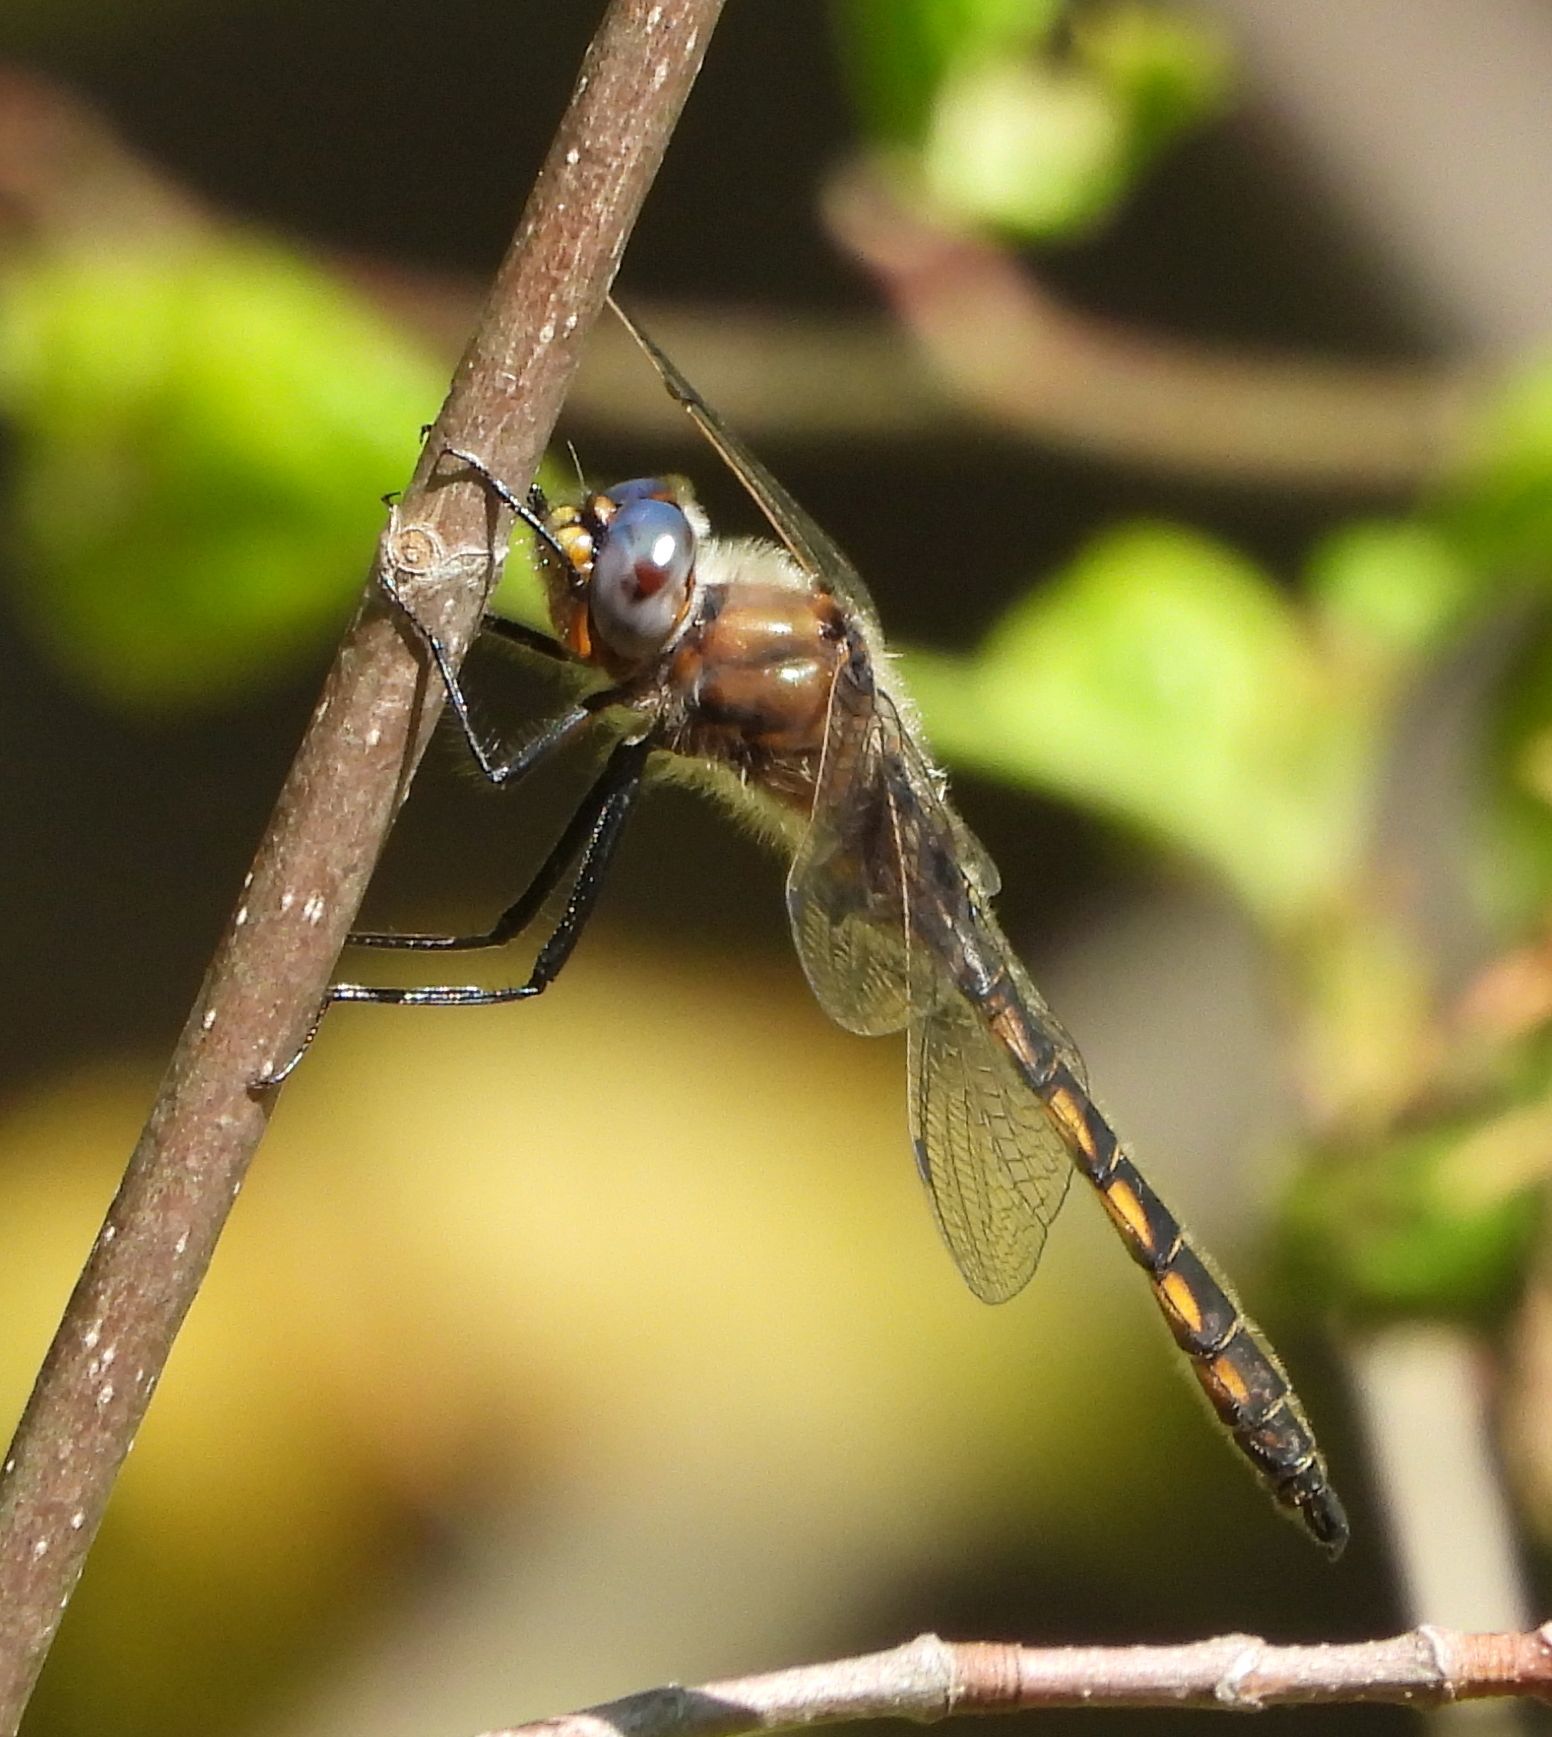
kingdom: Animalia
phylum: Arthropoda
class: Insecta
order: Odonata
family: Corduliidae
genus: Epitheca
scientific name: Epitheca canis
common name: Beaverpond baskettail
